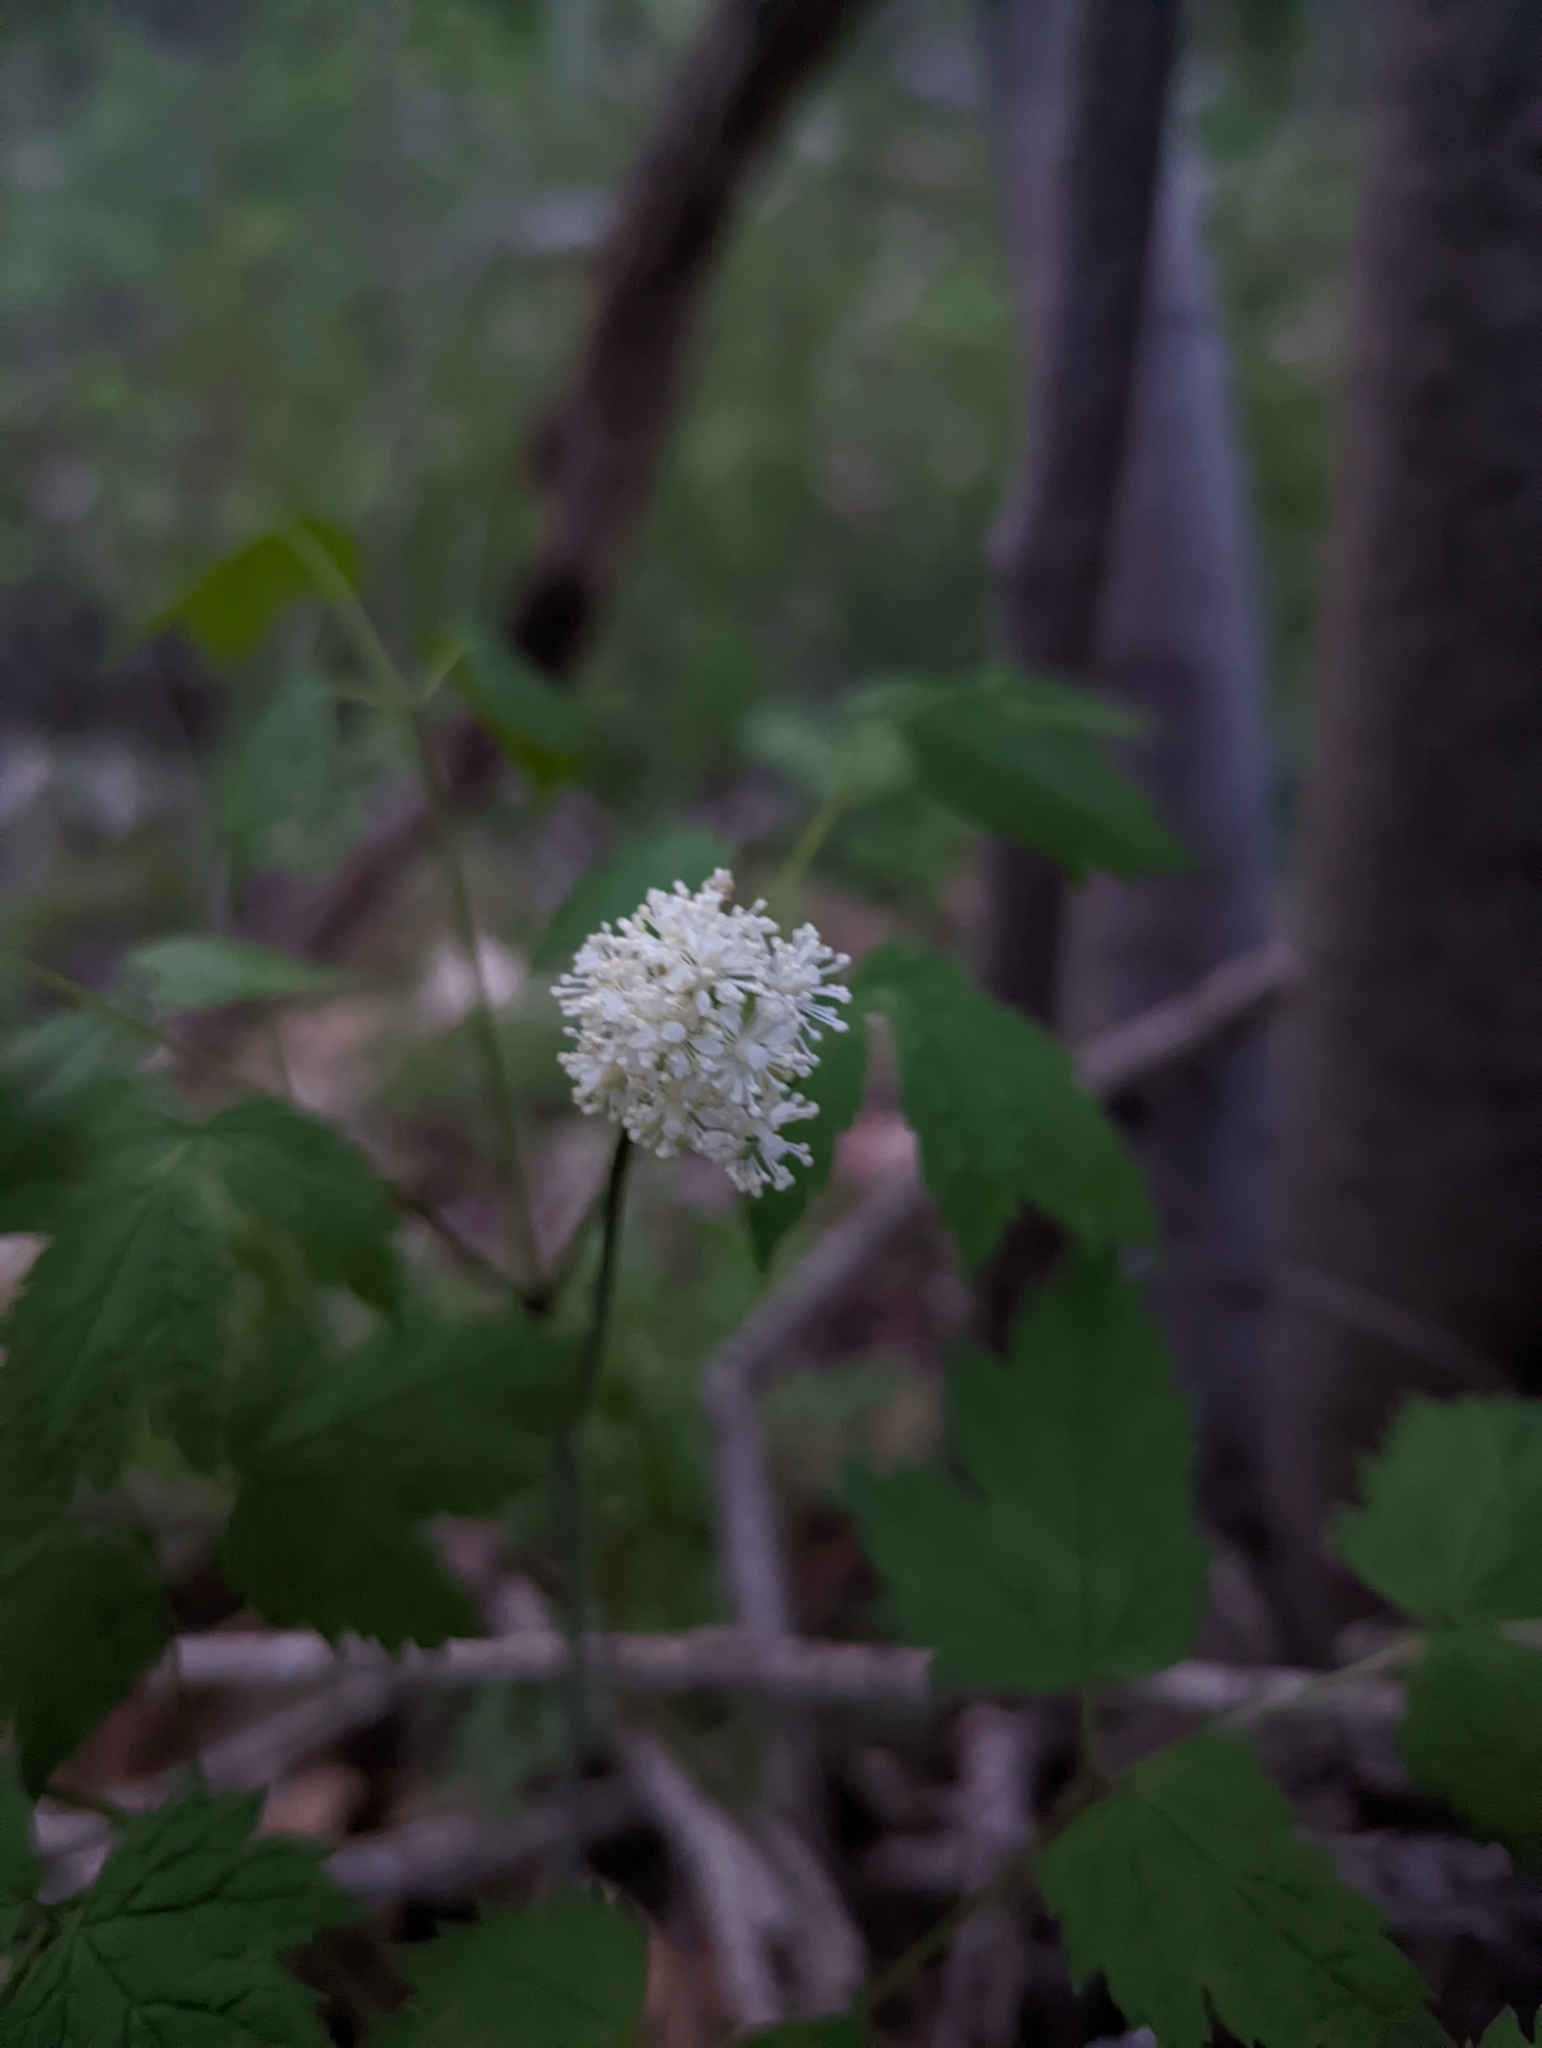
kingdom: Plantae
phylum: Tracheophyta
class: Magnoliopsida
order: Ranunculales
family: Ranunculaceae
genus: Actaea
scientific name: Actaea rubra
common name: Red baneberry
